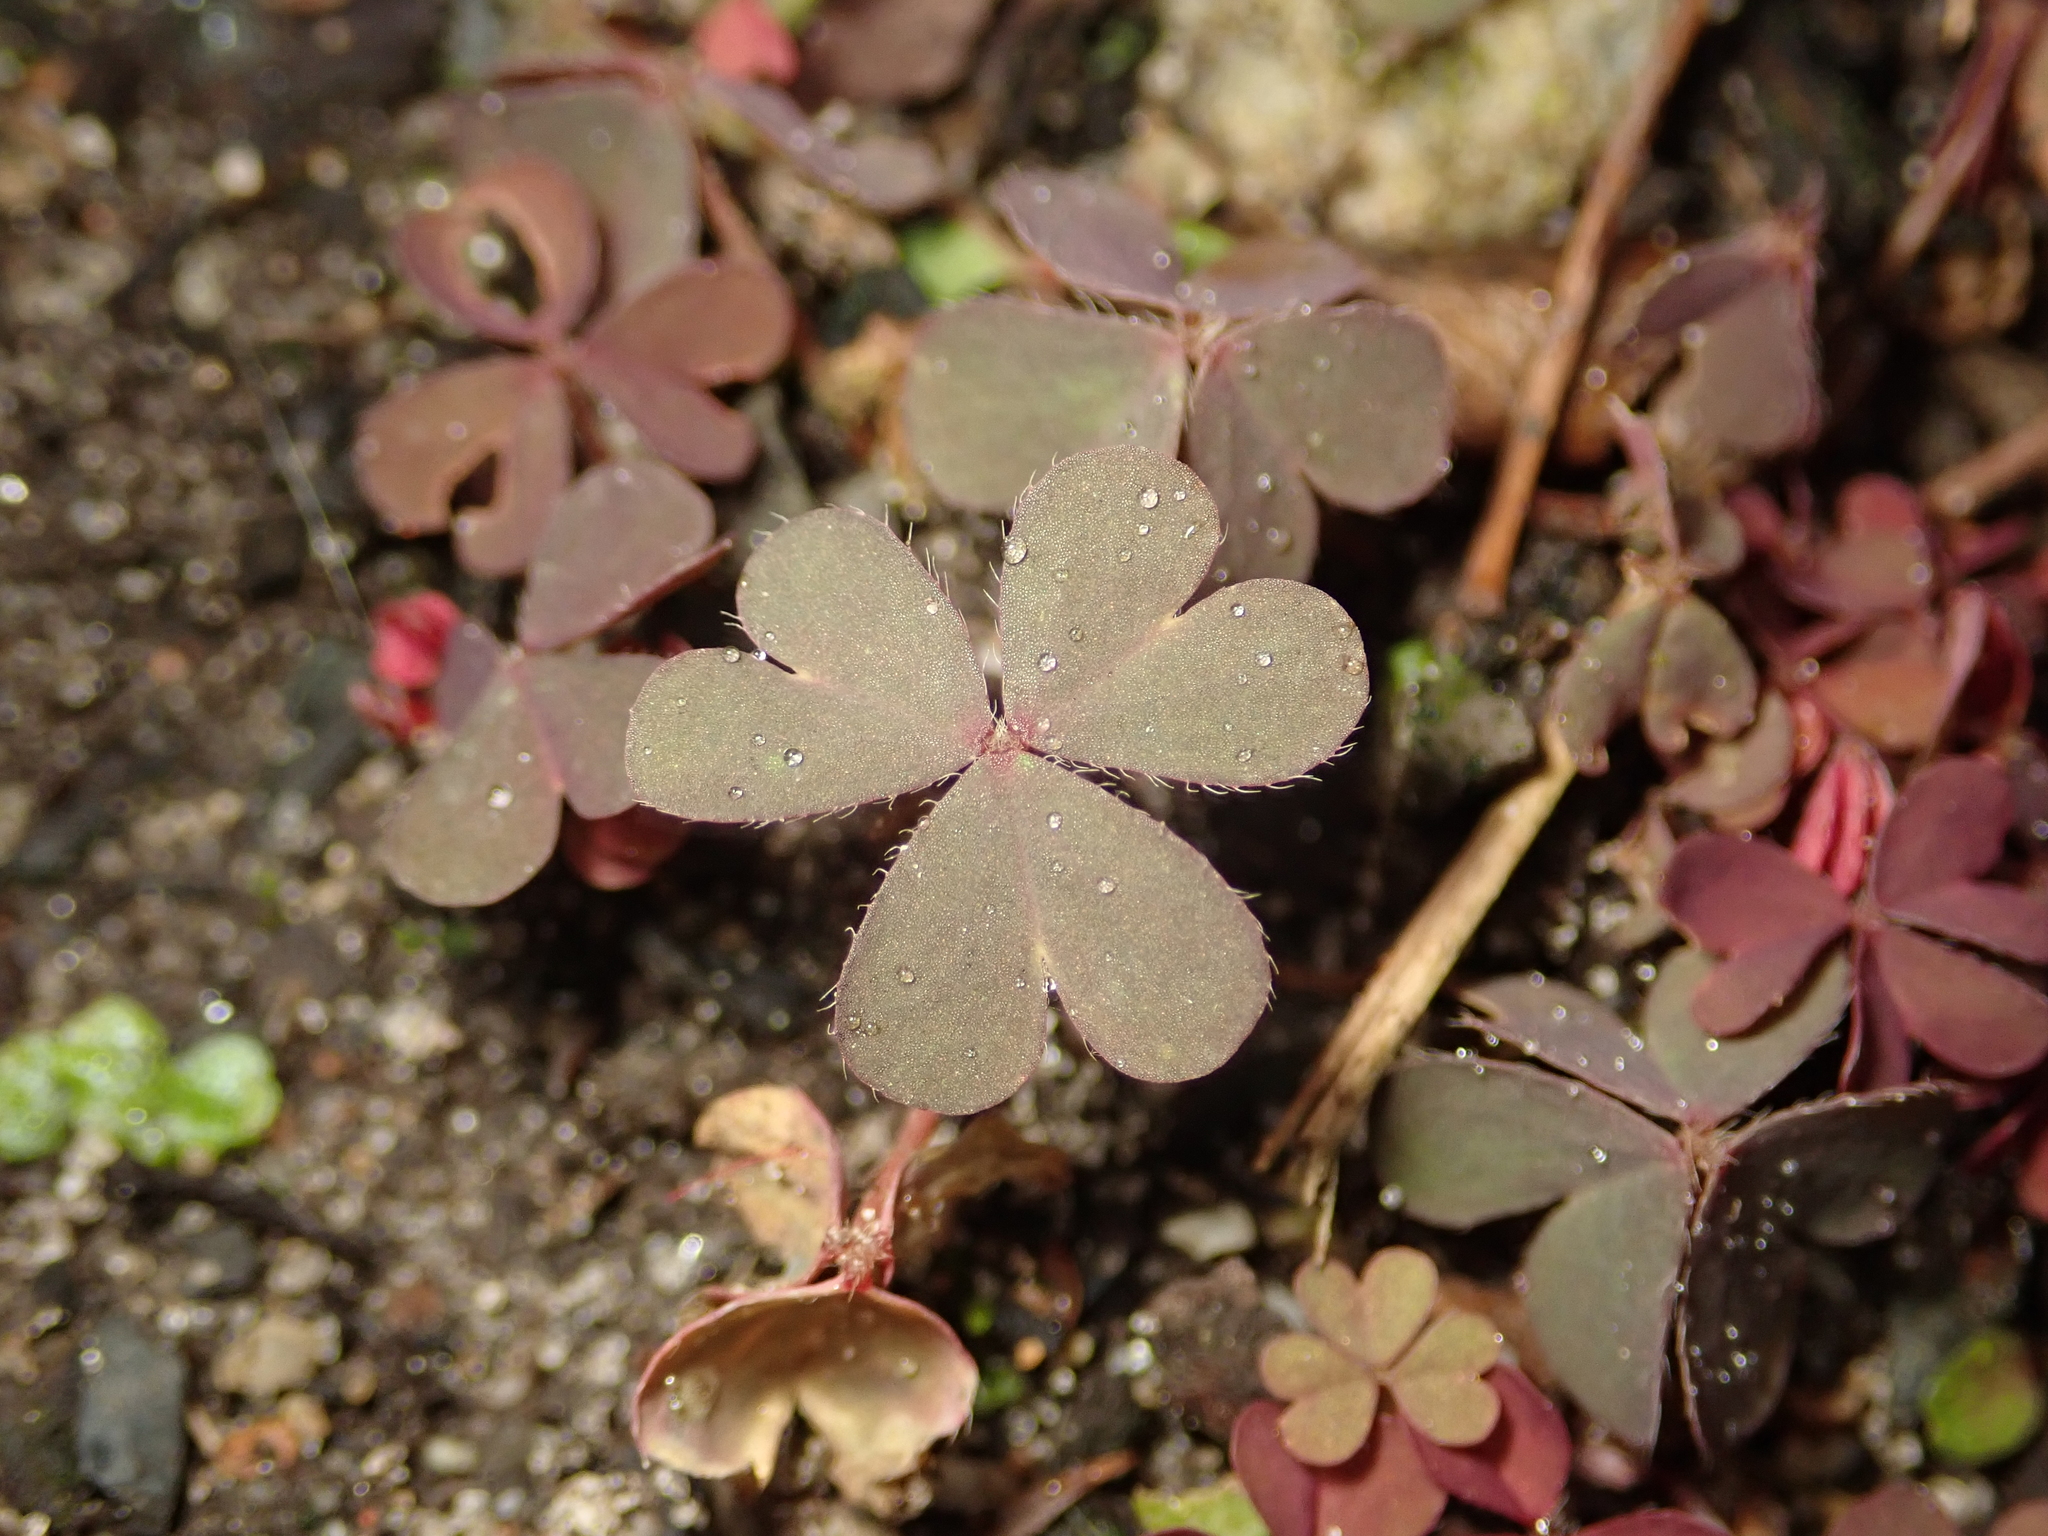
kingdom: Plantae
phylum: Tracheophyta
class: Magnoliopsida
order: Oxalidales
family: Oxalidaceae
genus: Oxalis
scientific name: Oxalis corniculata
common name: Procumbent yellow-sorrel
